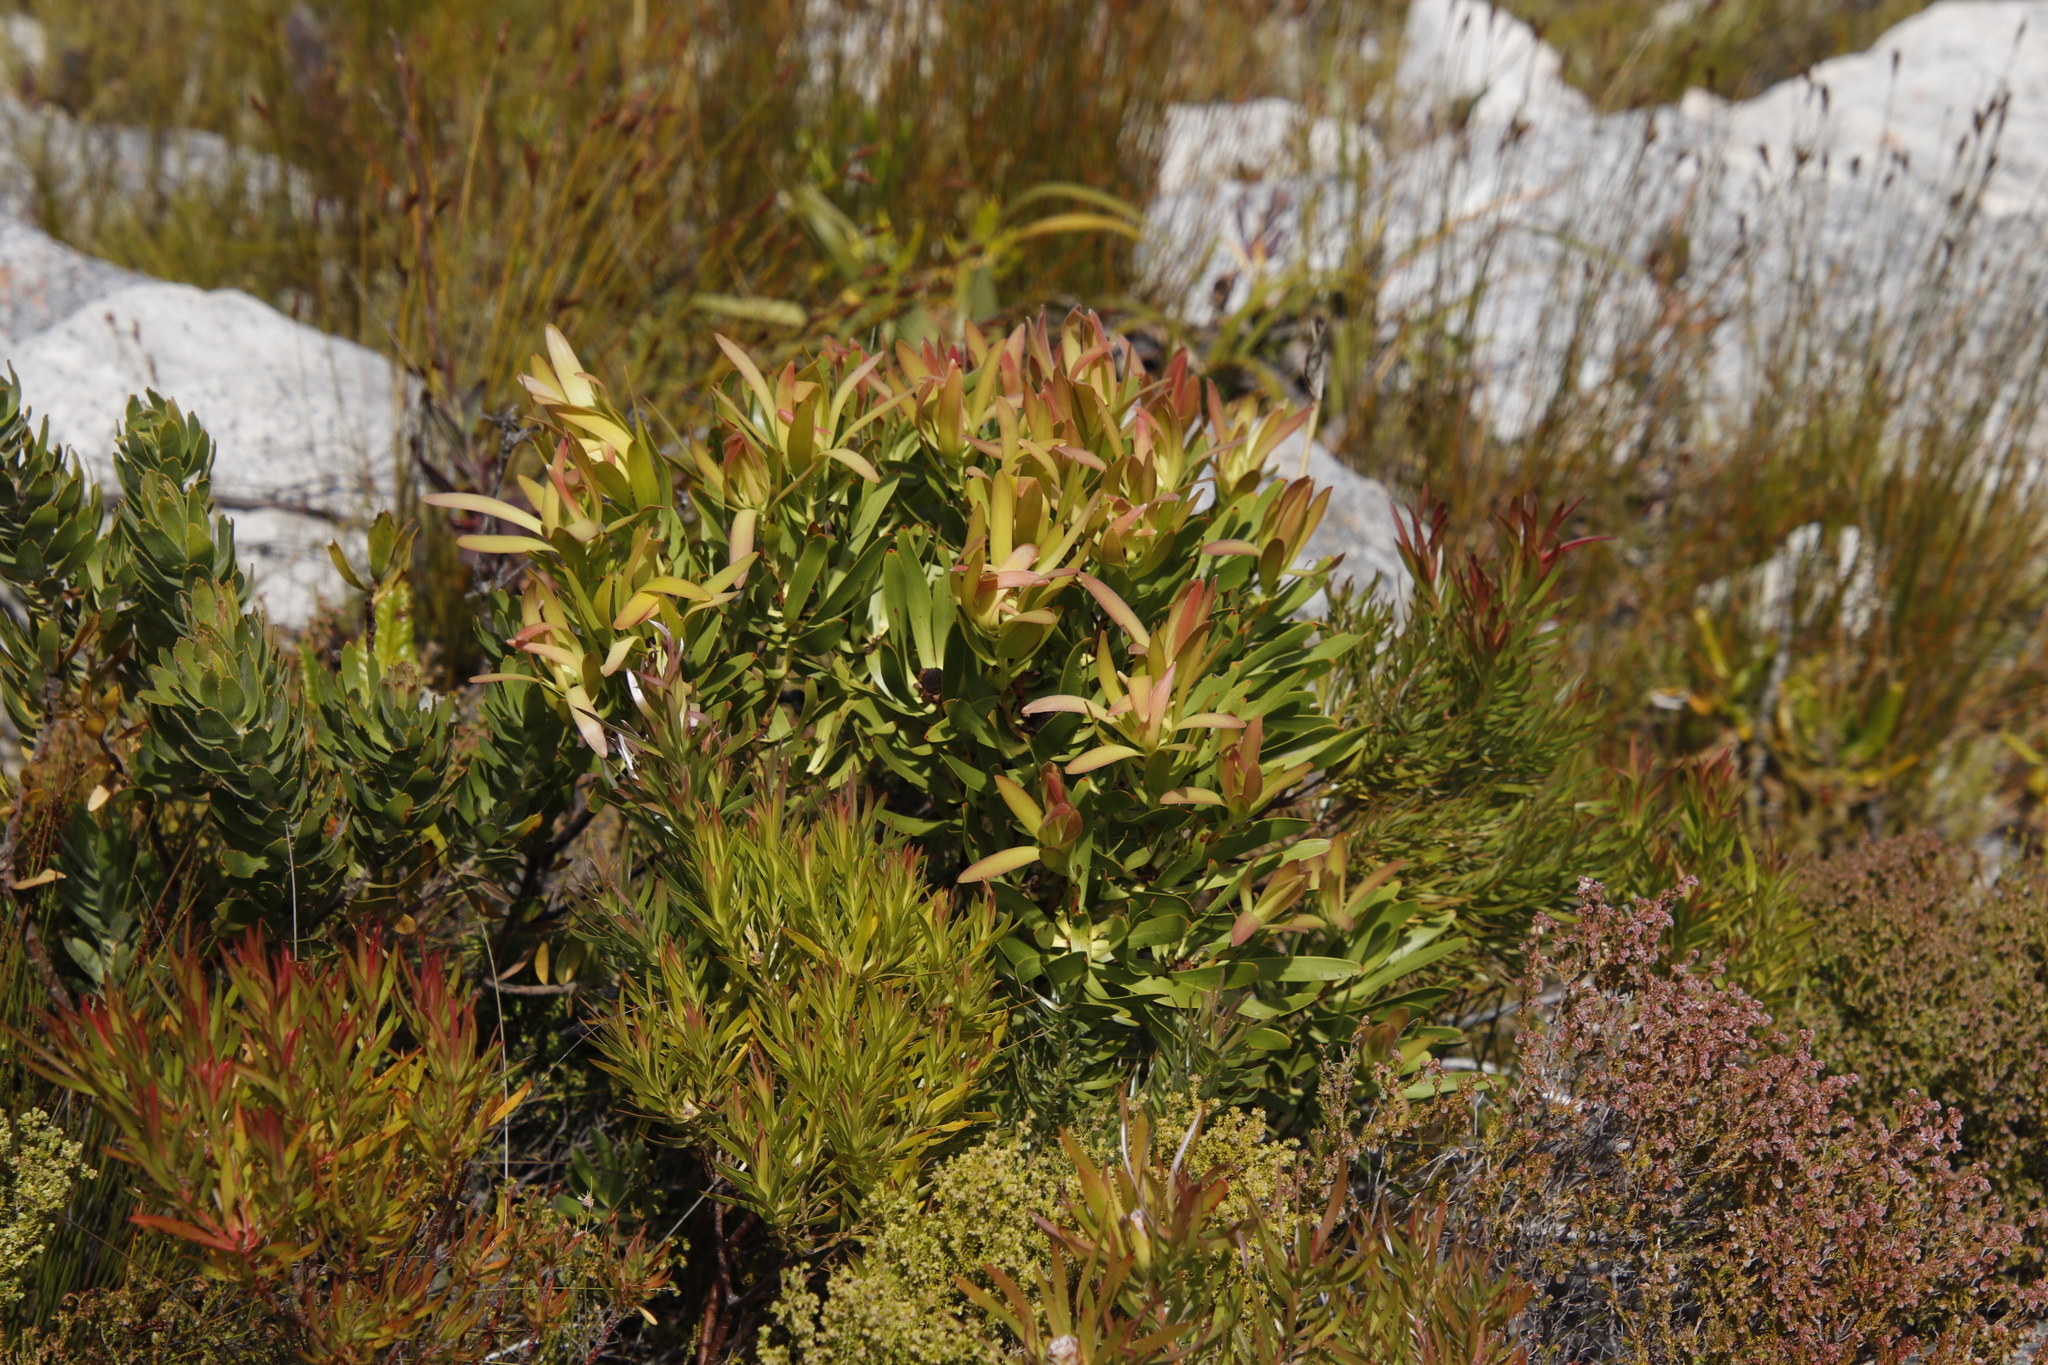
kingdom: Plantae
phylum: Tracheophyta
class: Magnoliopsida
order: Proteales
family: Proteaceae
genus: Leucadendron
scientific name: Leucadendron microcephalum
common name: Oilbract conebush
